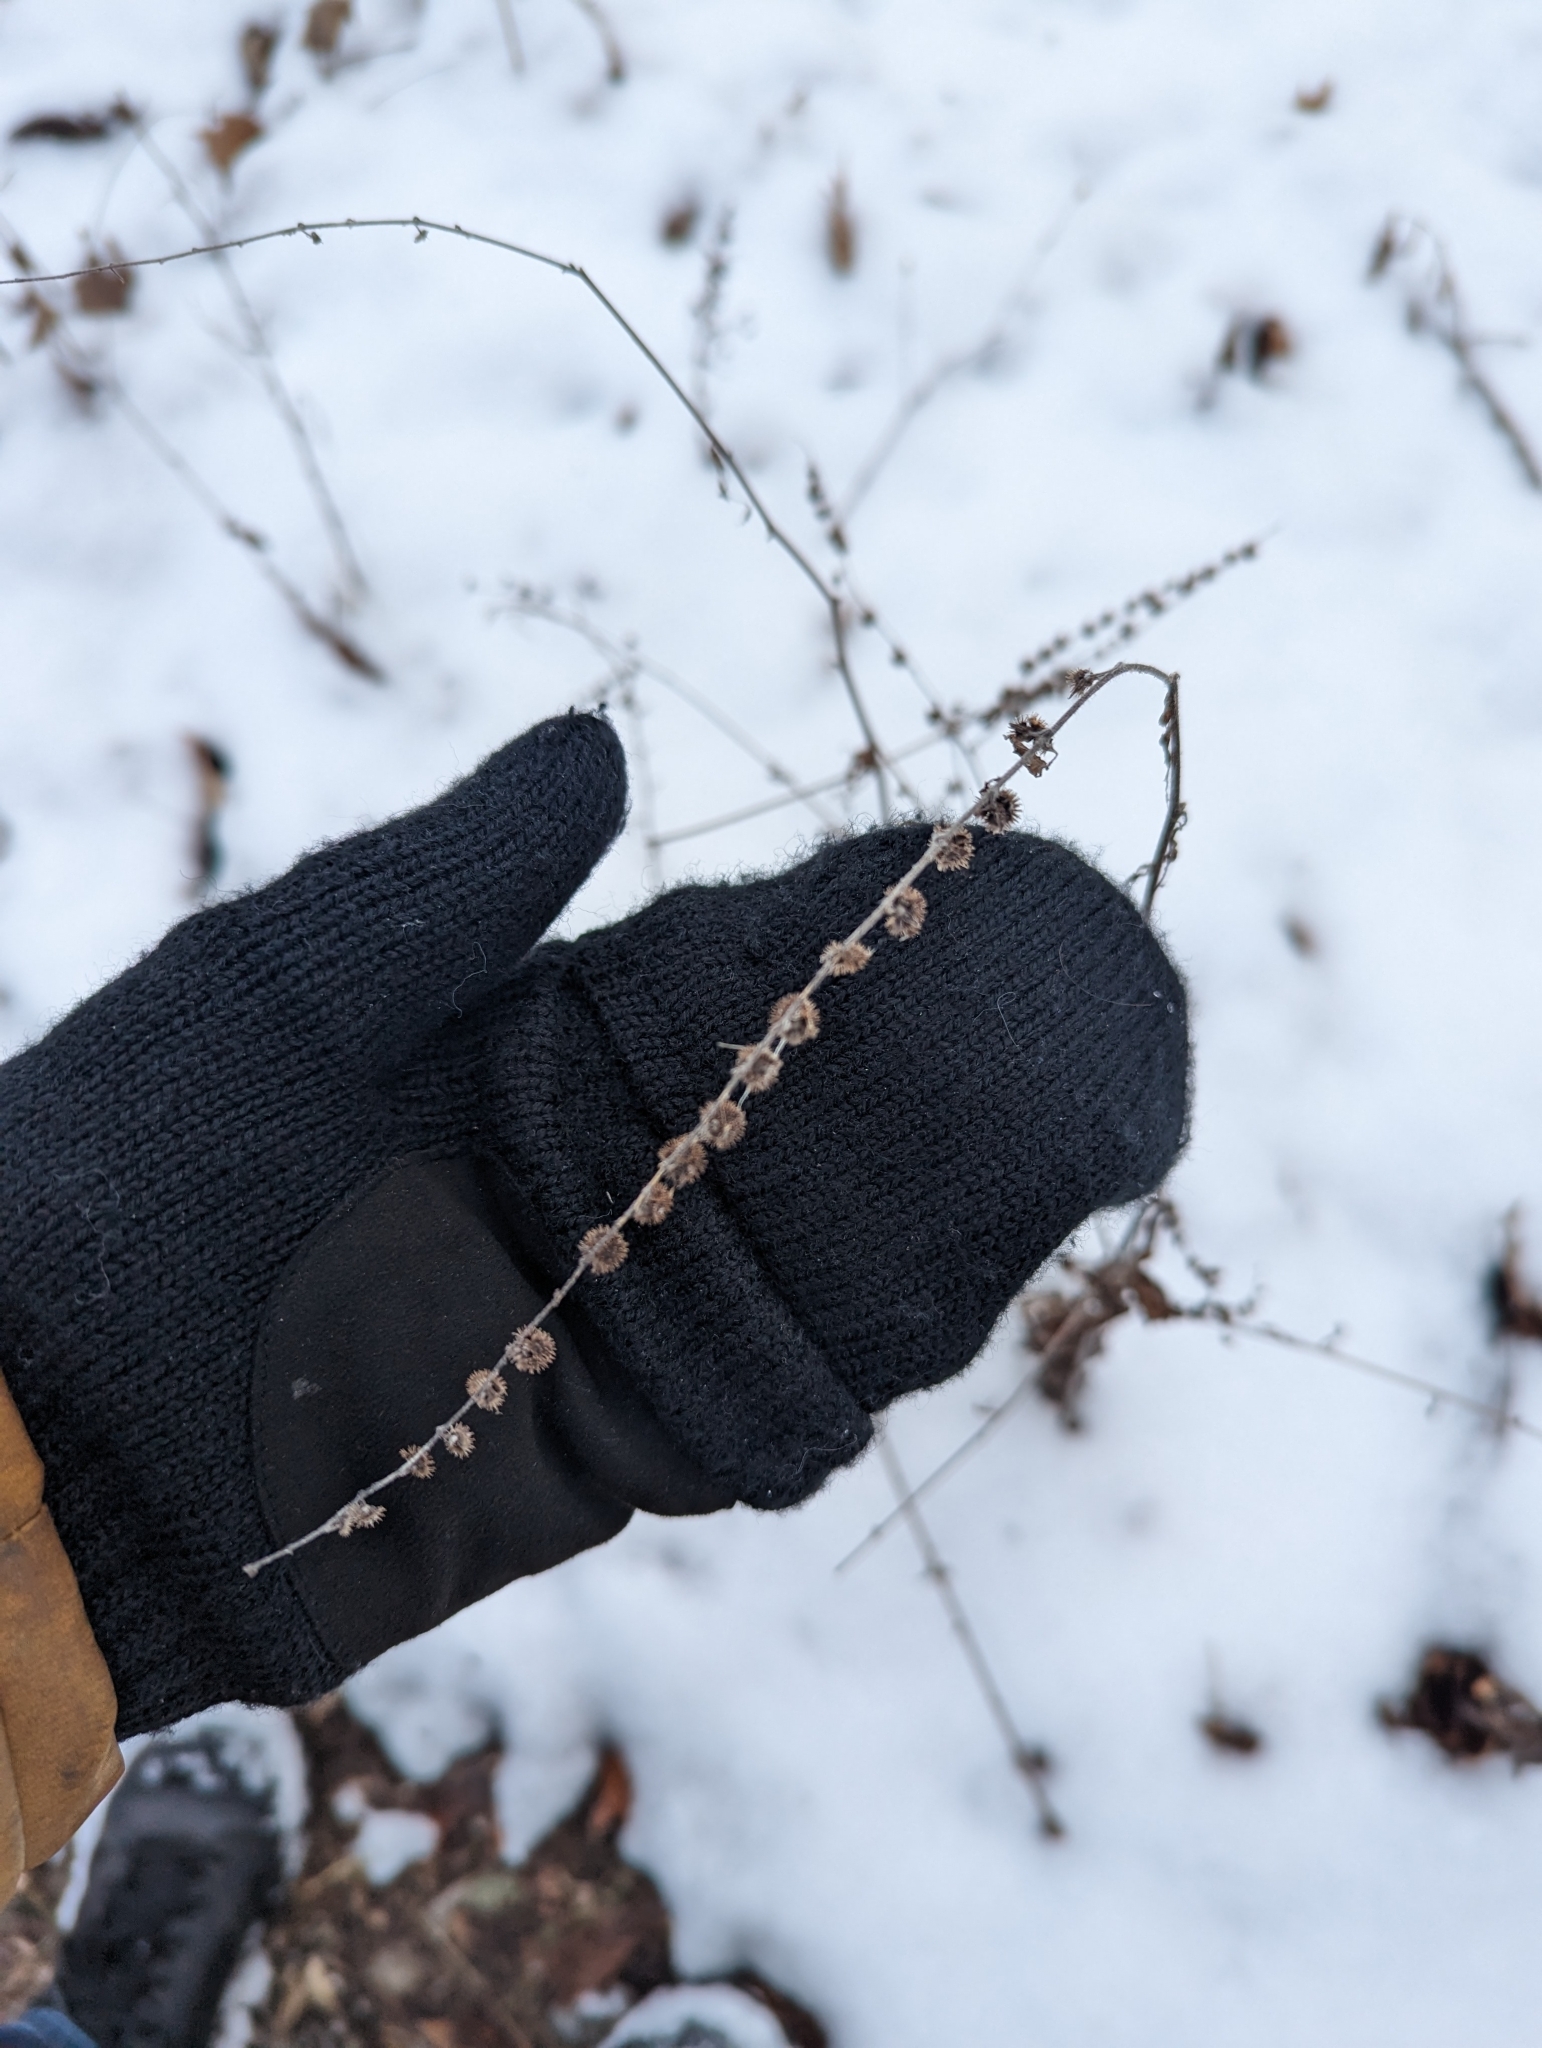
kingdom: Plantae
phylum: Tracheophyta
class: Magnoliopsida
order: Boraginales
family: Boraginaceae
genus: Hackelia
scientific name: Hackelia virginiana
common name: Beggar's-lice
